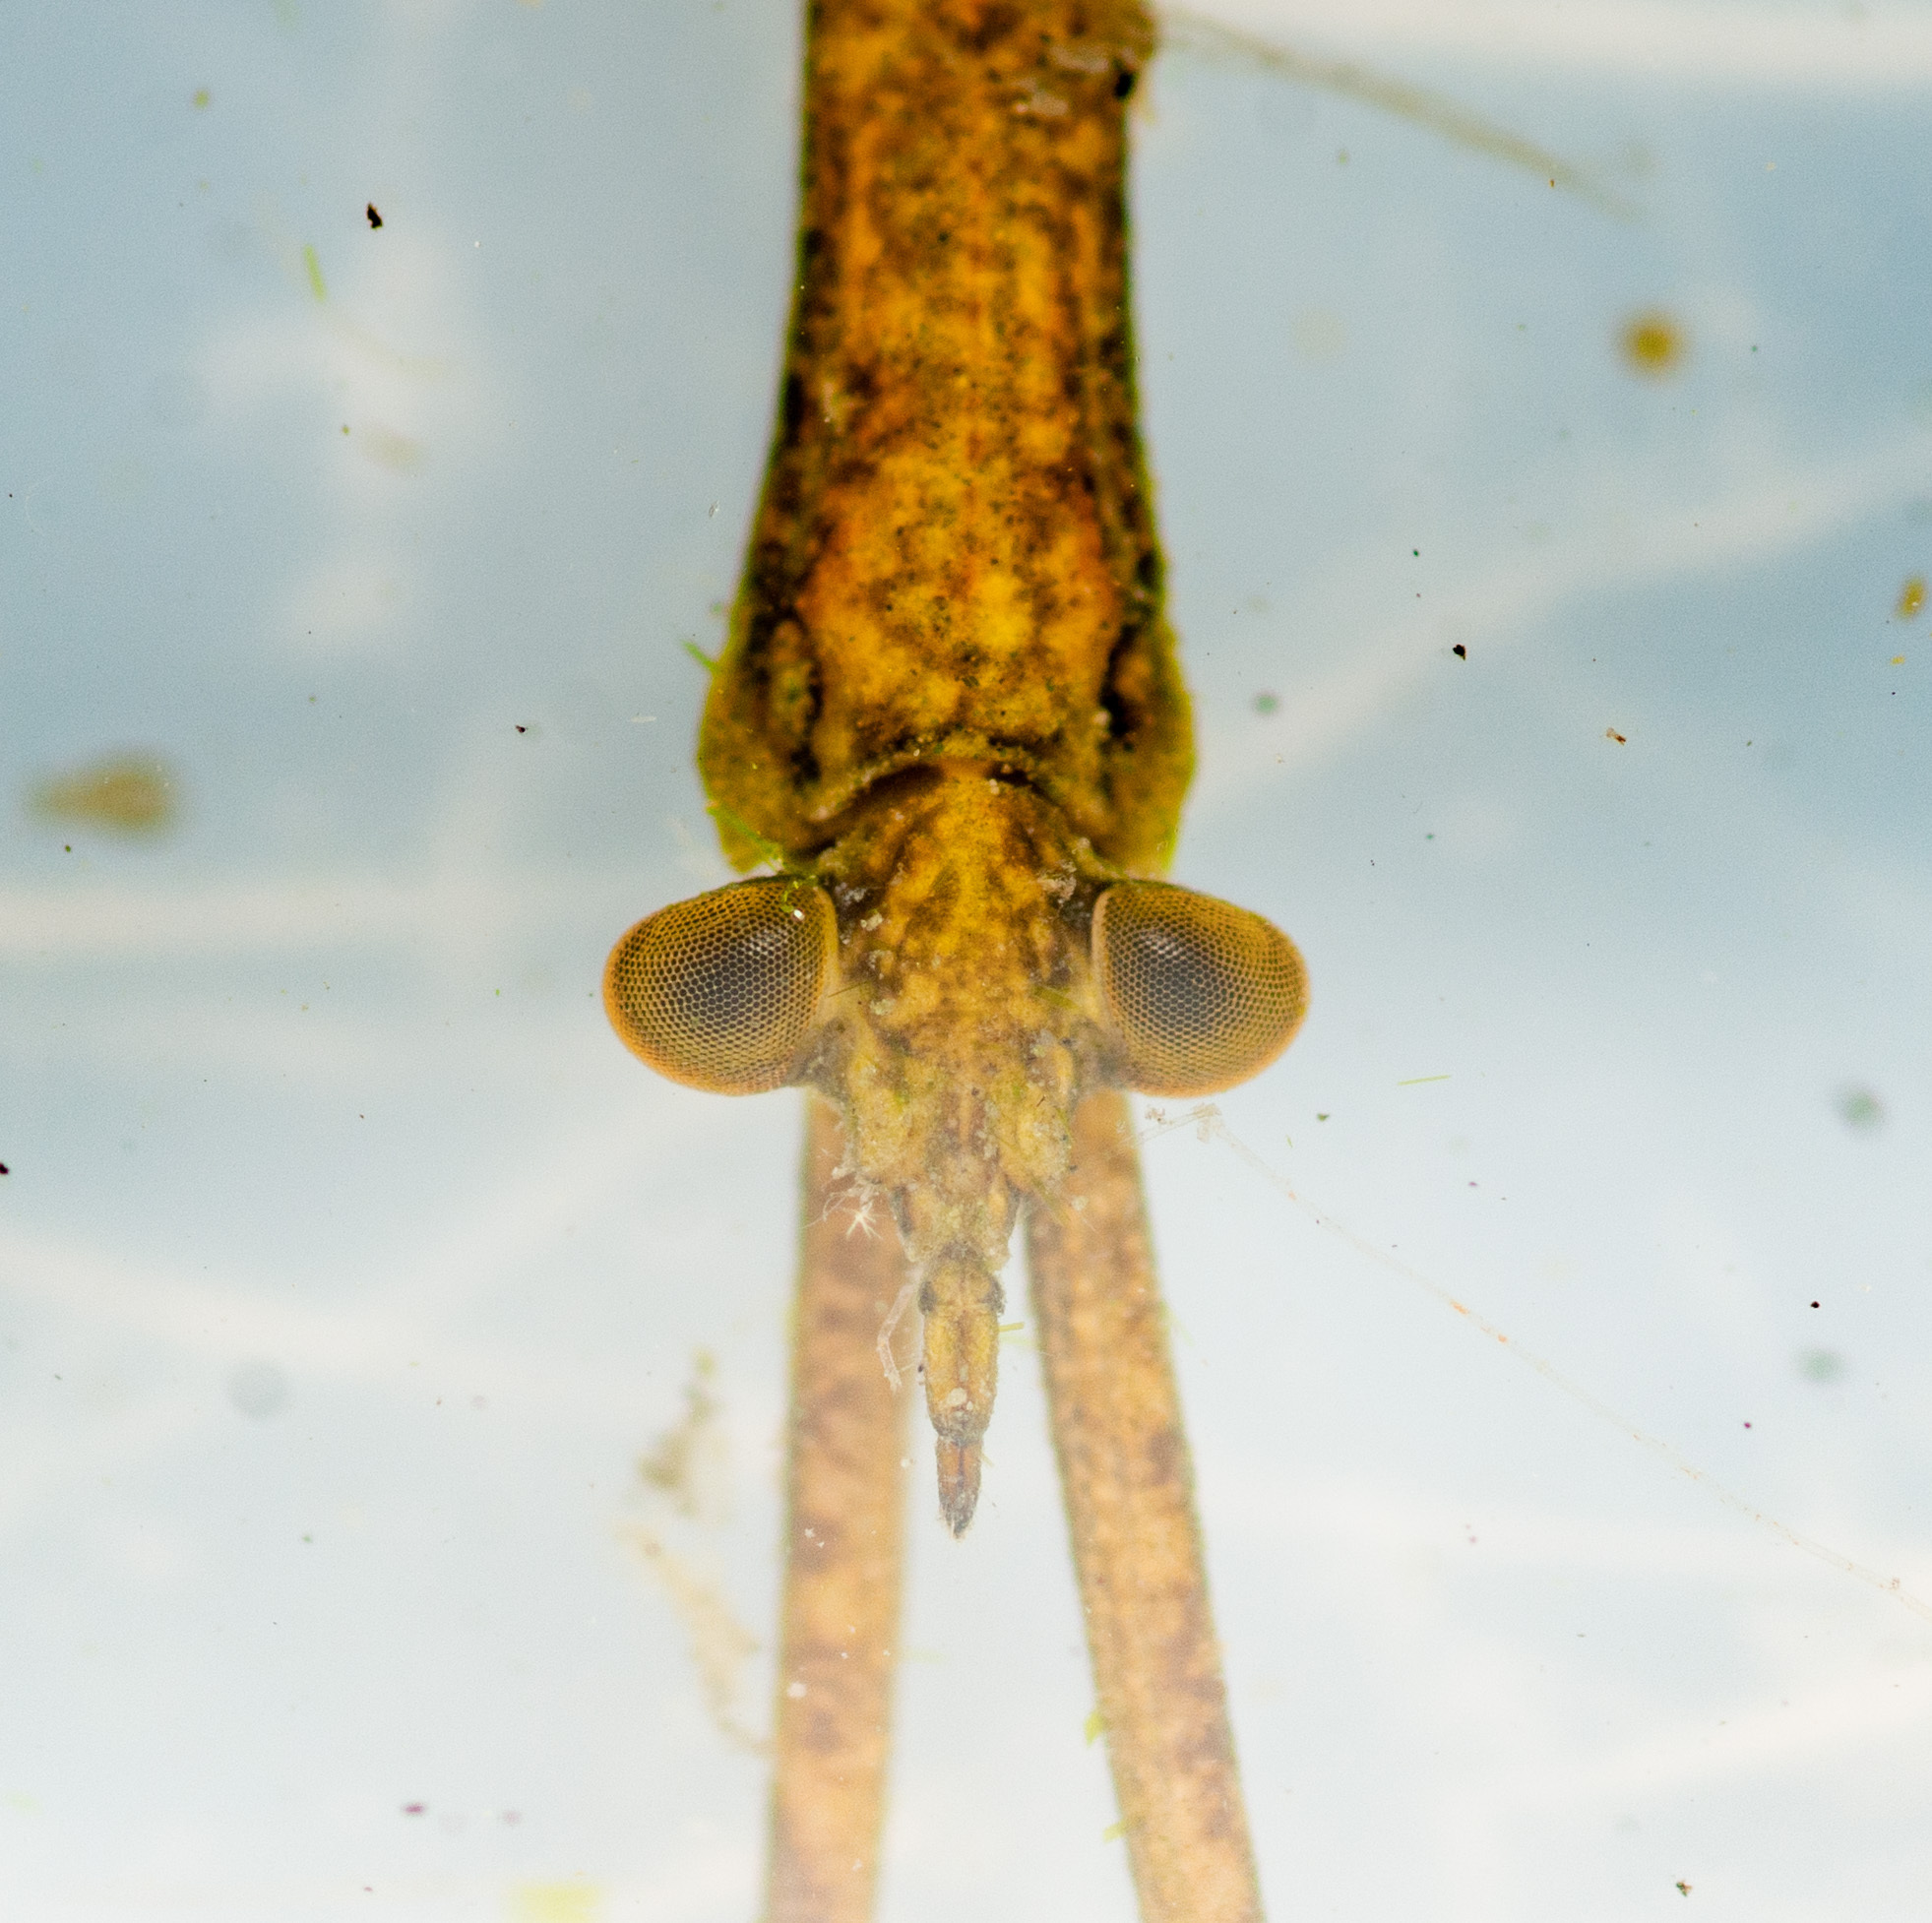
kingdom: Animalia
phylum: Arthropoda
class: Insecta
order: Hemiptera
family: Nepidae
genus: Ranatra
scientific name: Ranatra texana
